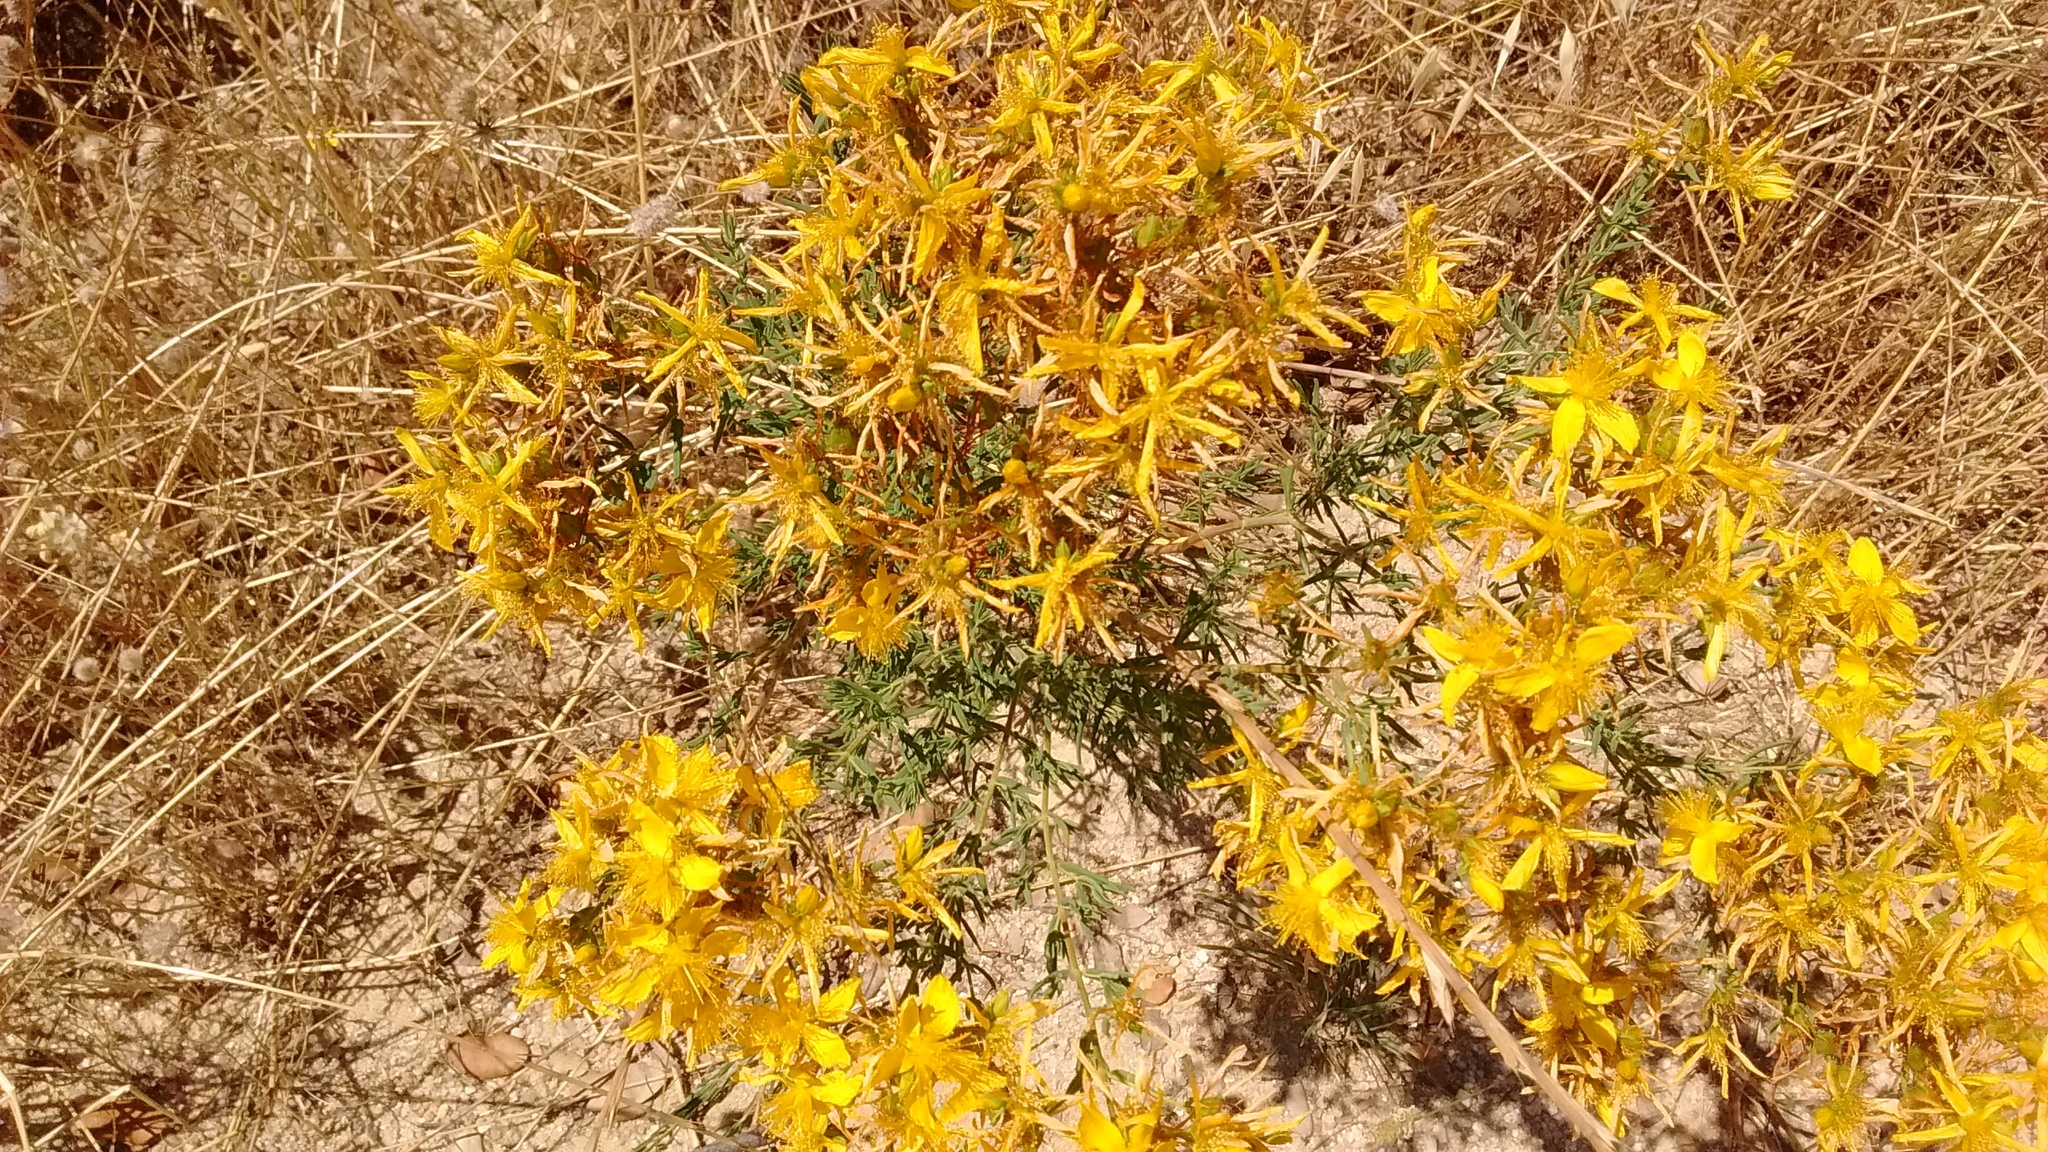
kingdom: Plantae
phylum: Tracheophyta
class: Magnoliopsida
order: Malpighiales
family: Hypericaceae
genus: Hypericum
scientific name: Hypericum perforatum
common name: Common st. johnswort
